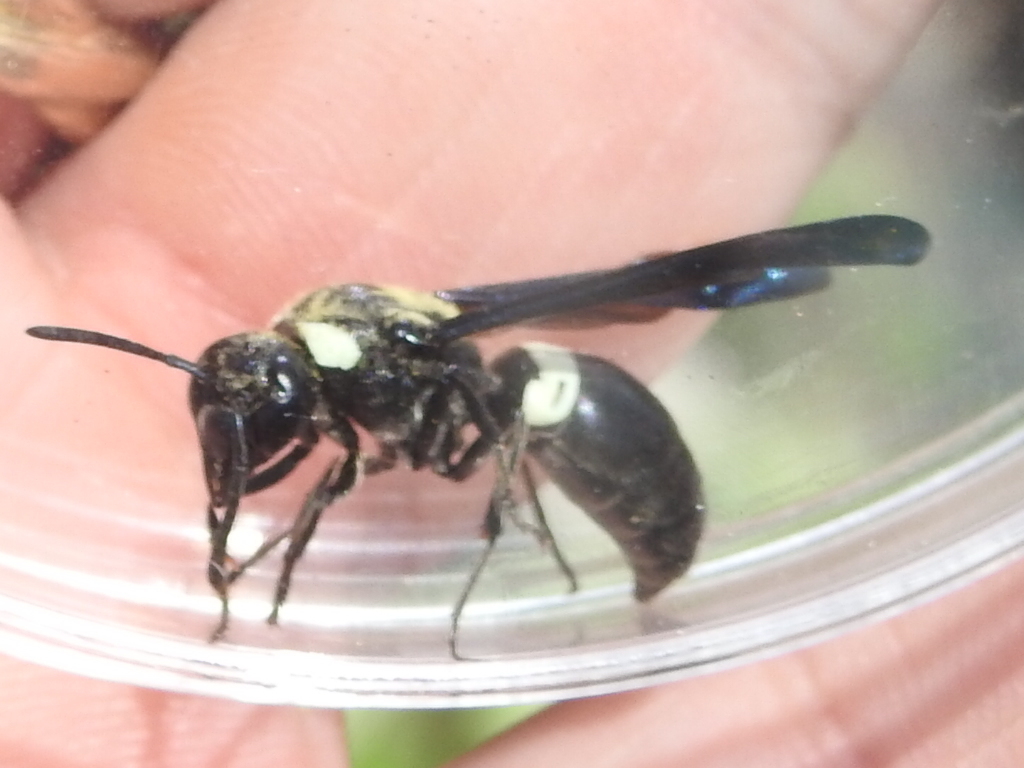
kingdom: Animalia
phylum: Arthropoda
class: Insecta
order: Hymenoptera
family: Eumenidae
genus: Monobia
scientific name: Monobia quadridens
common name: Four-toothed mason wasp
